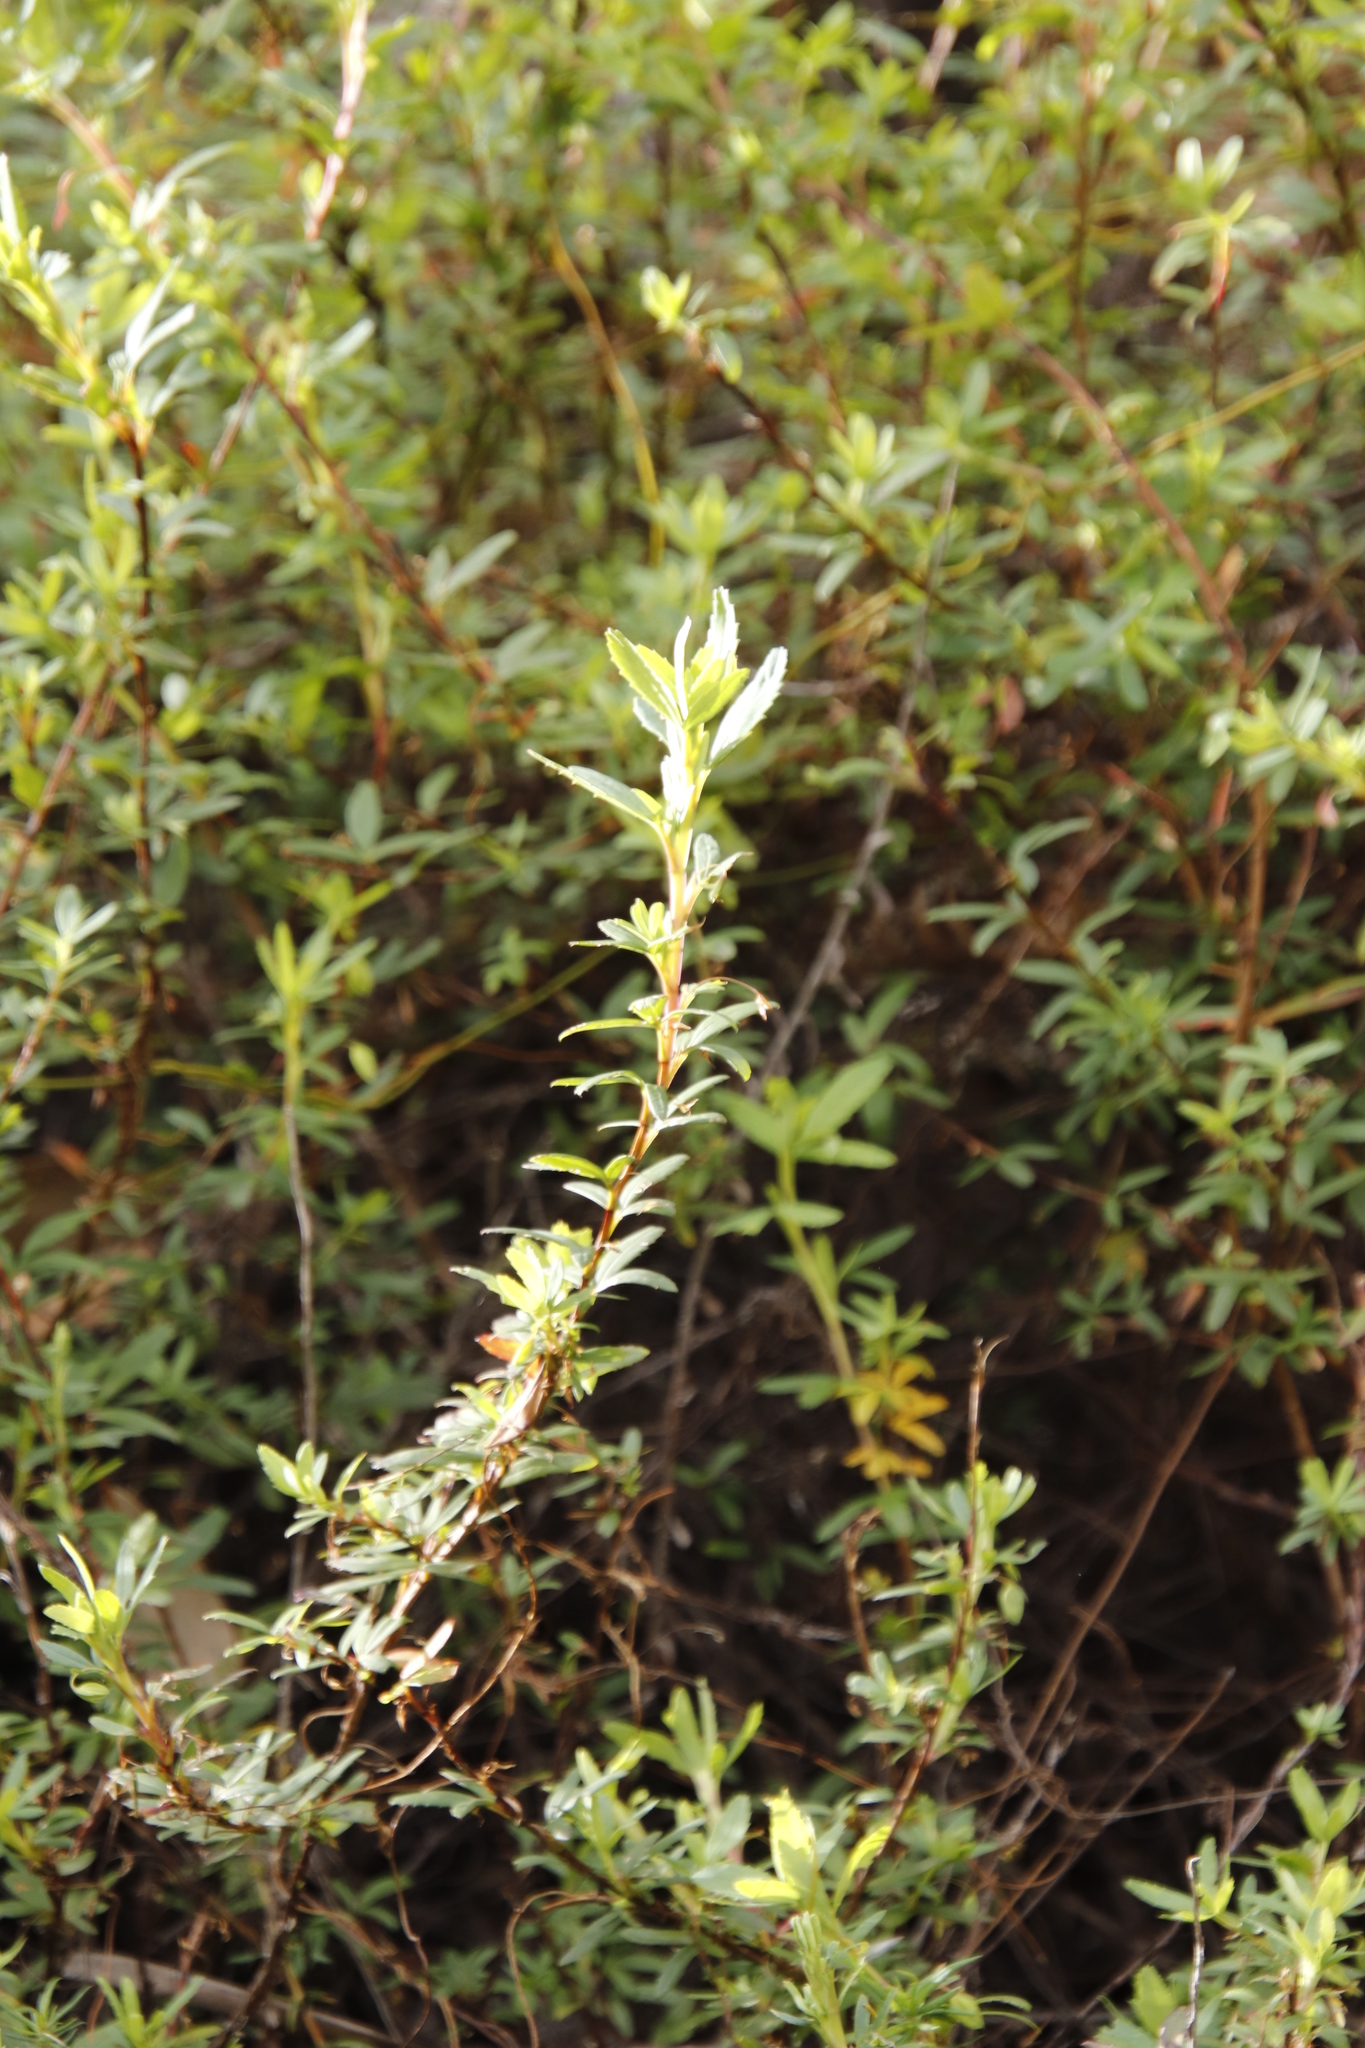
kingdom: Plantae
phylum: Tracheophyta
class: Magnoliopsida
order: Rosales
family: Rosaceae
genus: Cliffortia
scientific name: Cliffortia pedunculata
